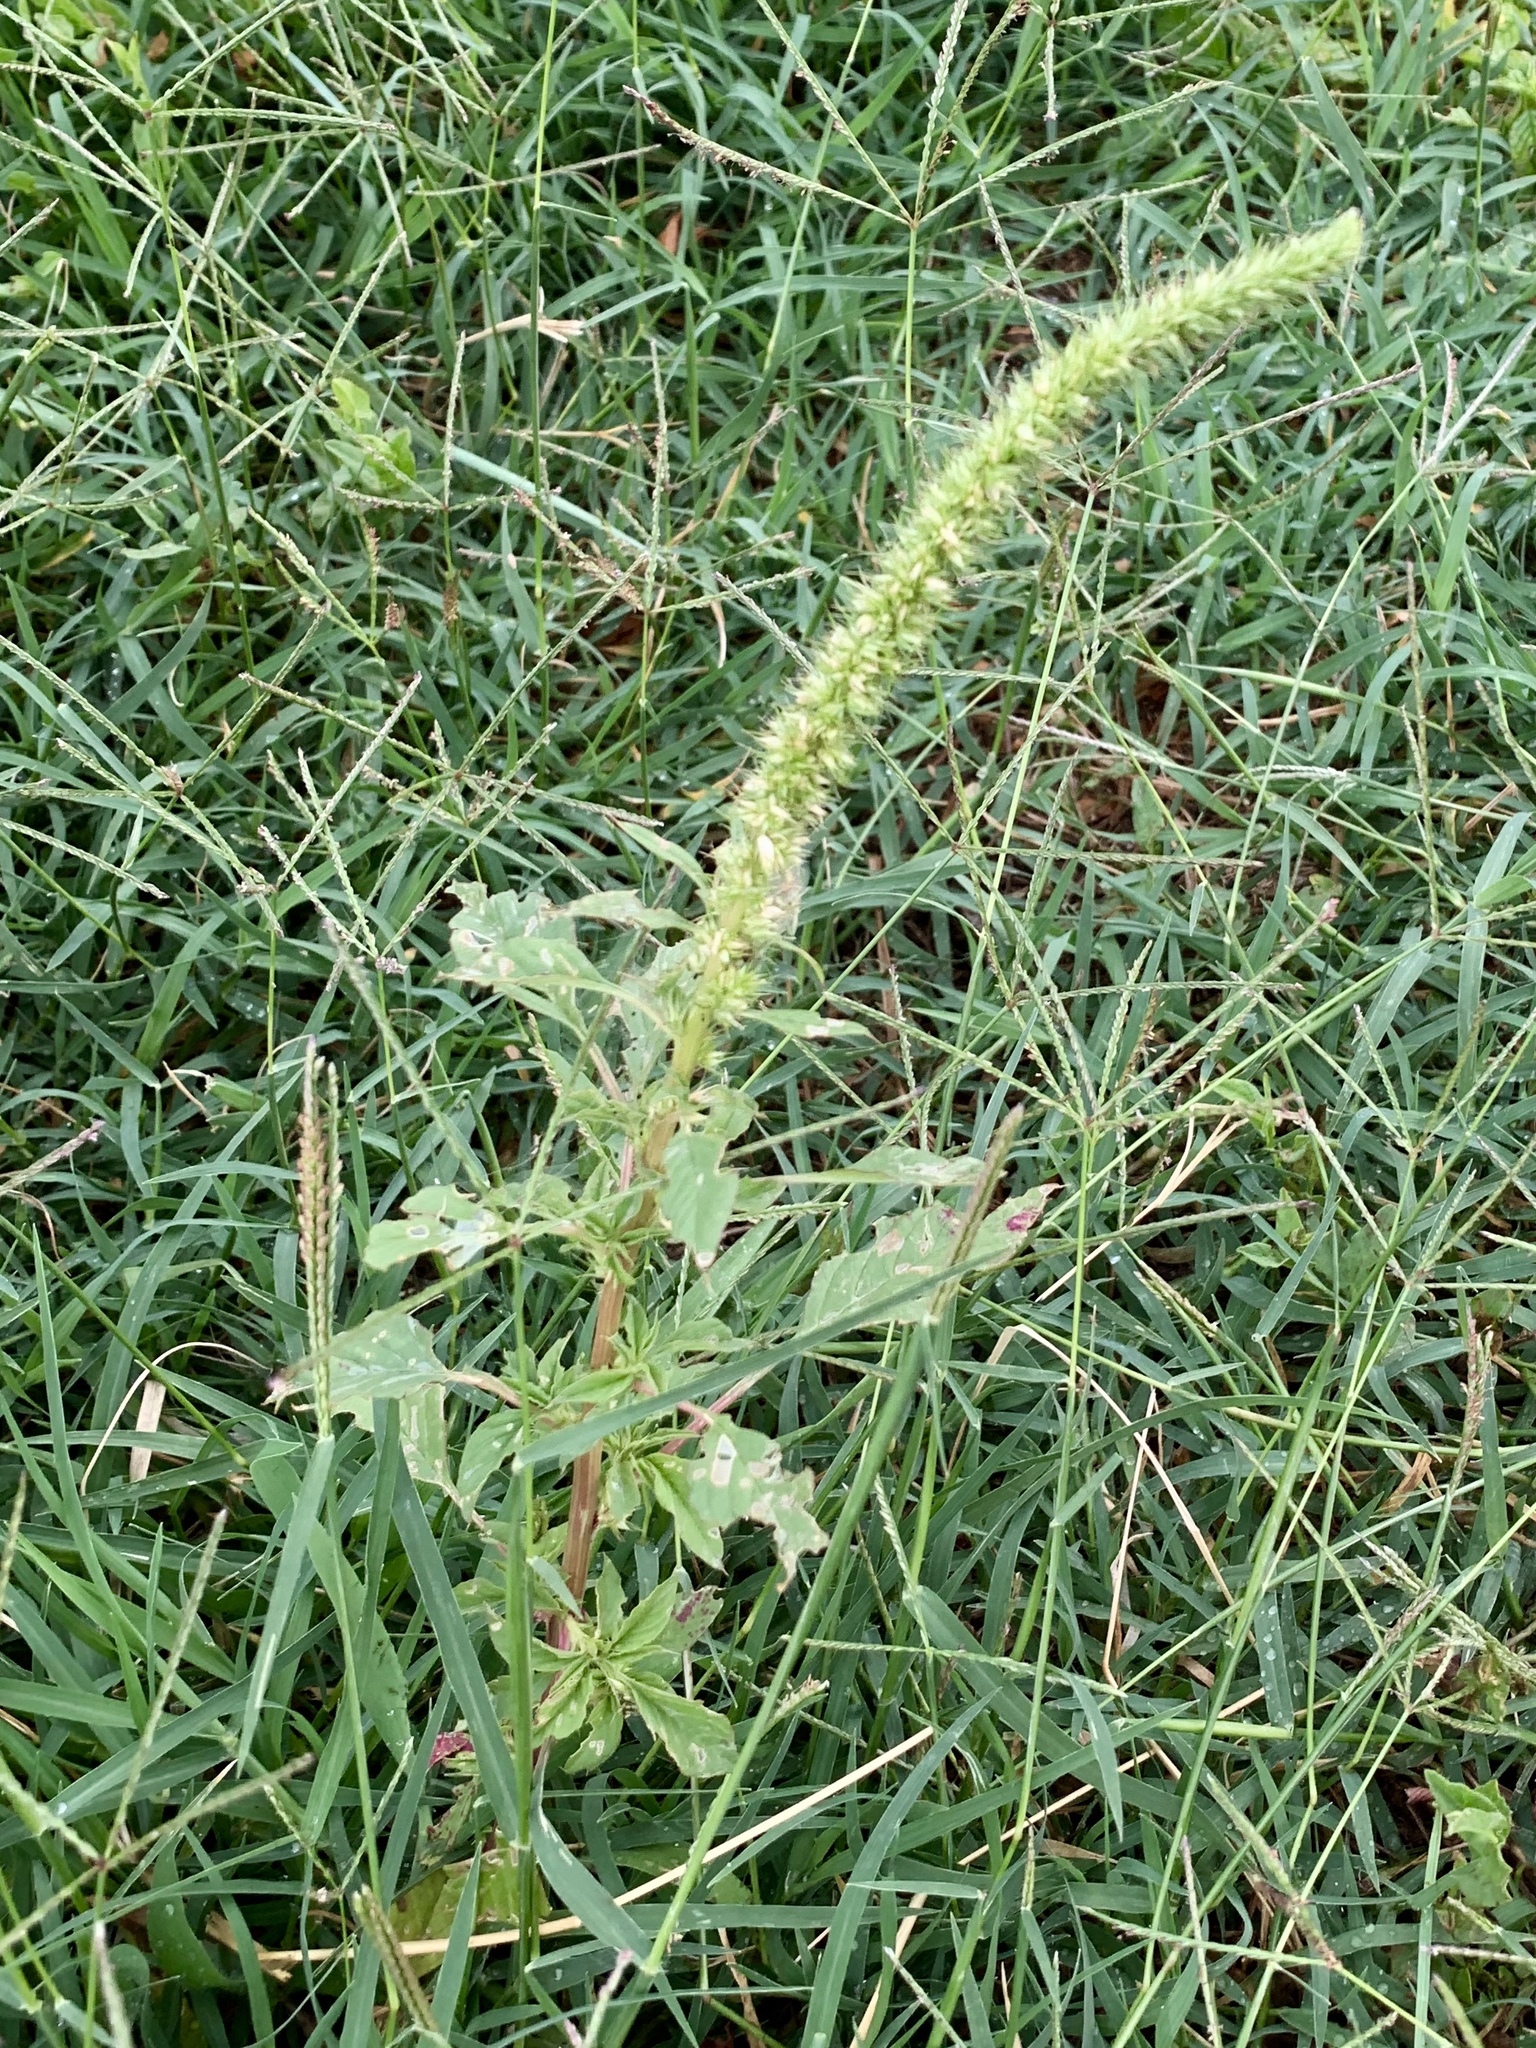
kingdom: Plantae
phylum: Tracheophyta
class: Magnoliopsida
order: Caryophyllales
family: Amaranthaceae
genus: Amaranthus
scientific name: Amaranthus palmeri
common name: Dioecious amaranth
